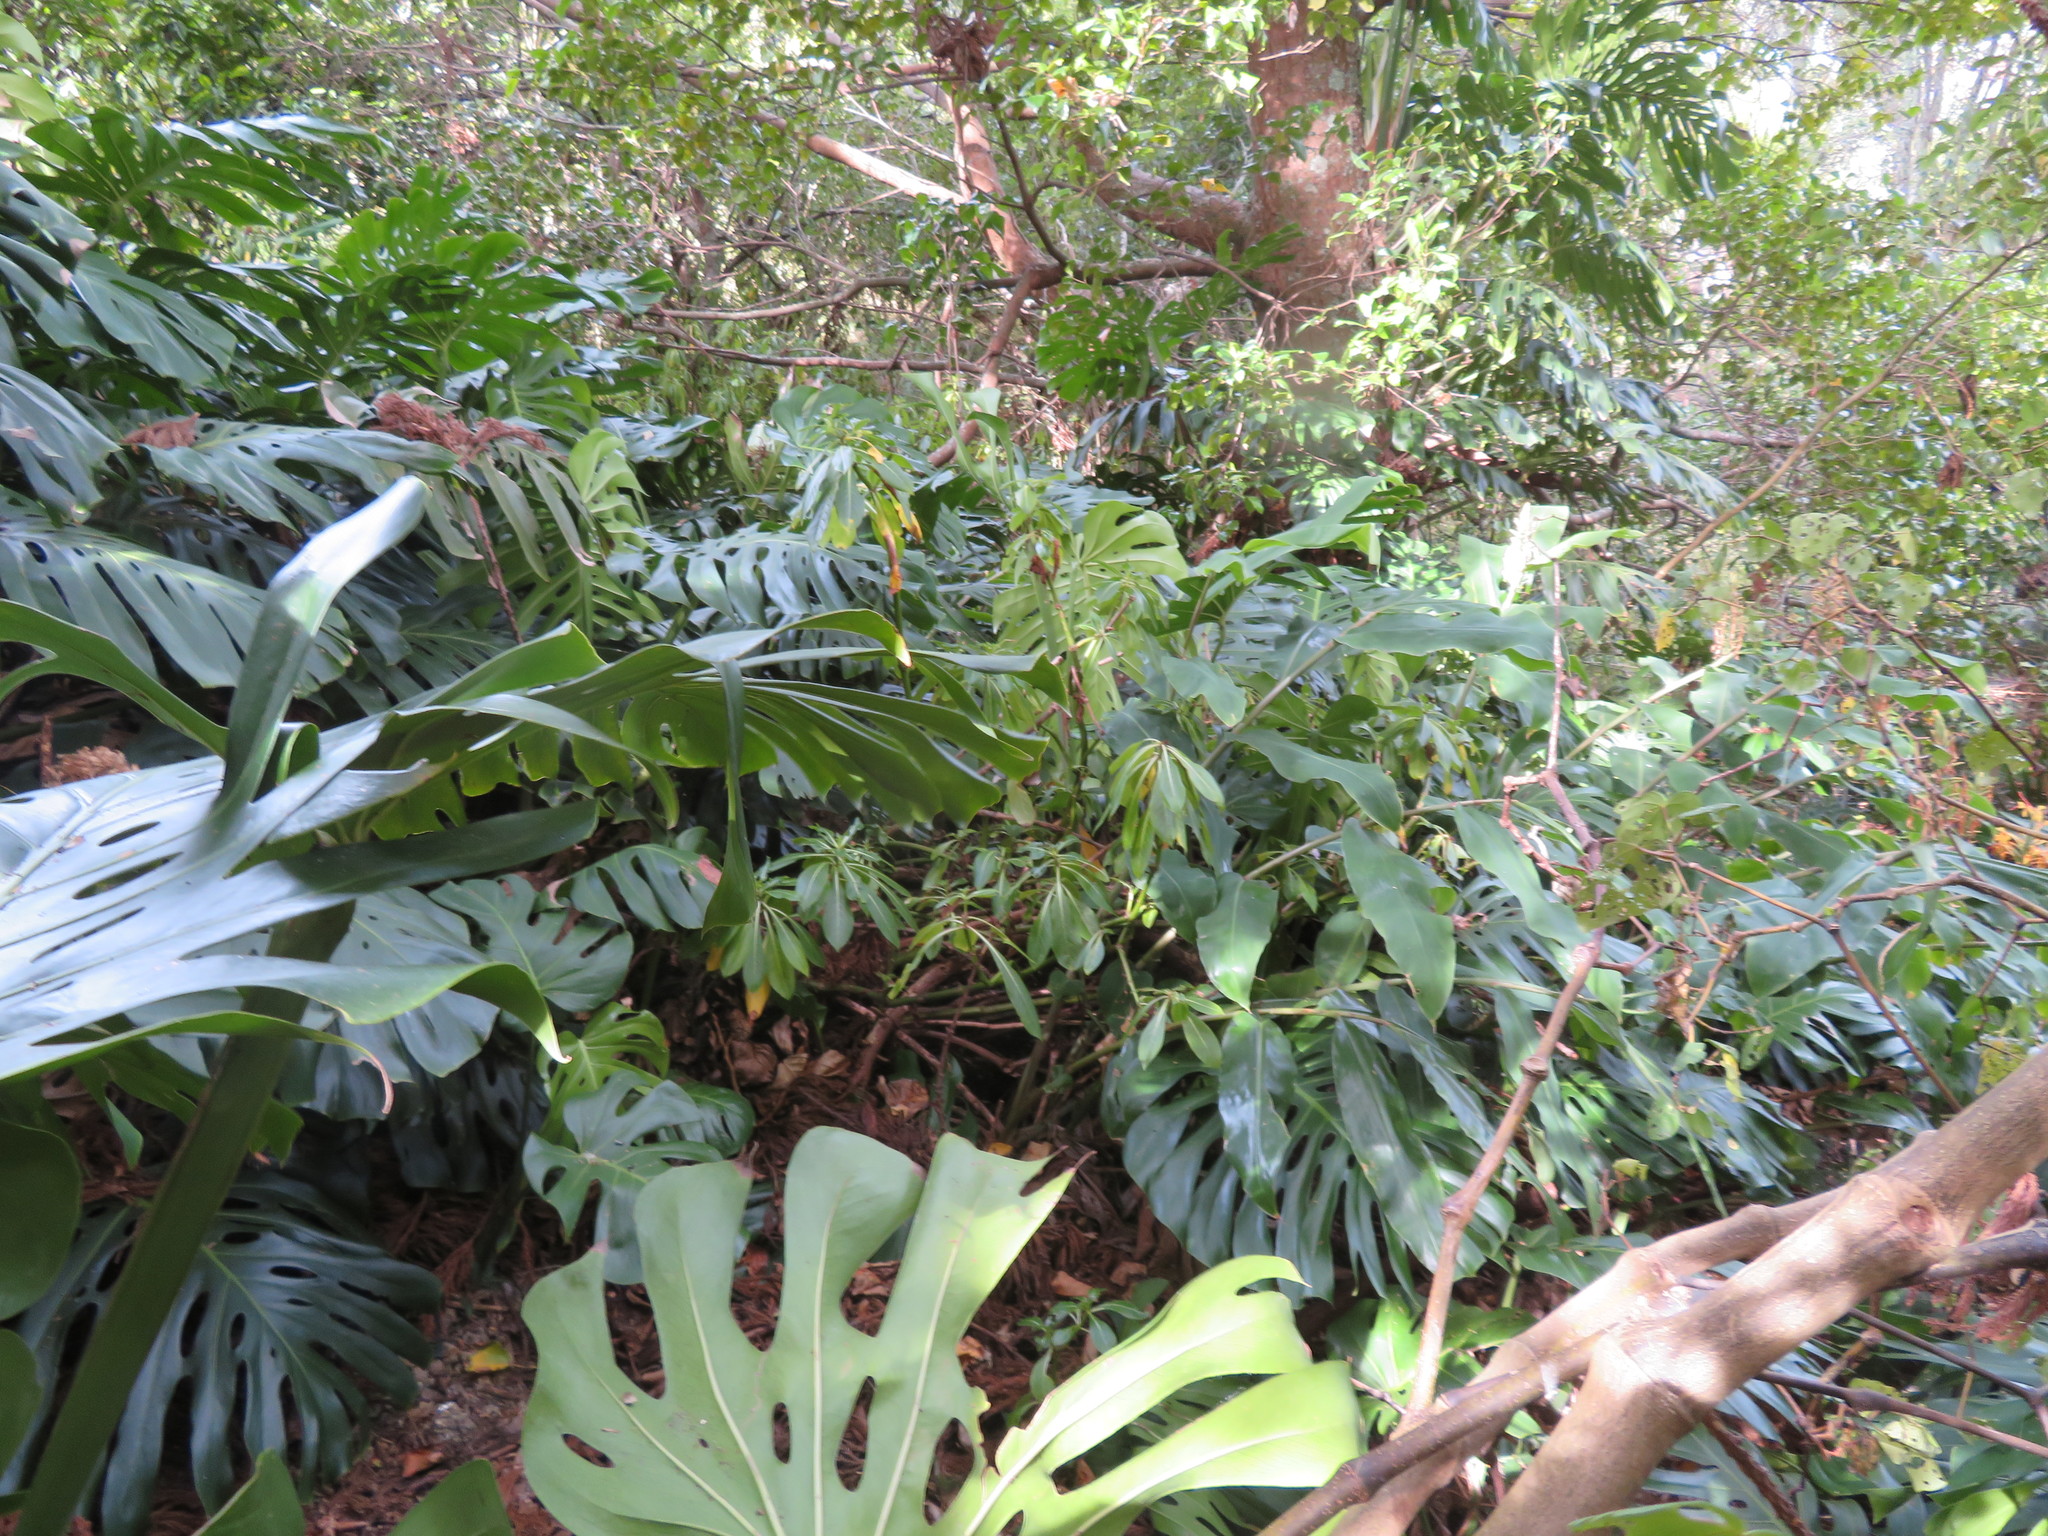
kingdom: Plantae
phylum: Tracheophyta
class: Liliopsida
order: Alismatales
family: Araceae
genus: Monstera
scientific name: Monstera deliciosa
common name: Cut-leaf-philodendron
